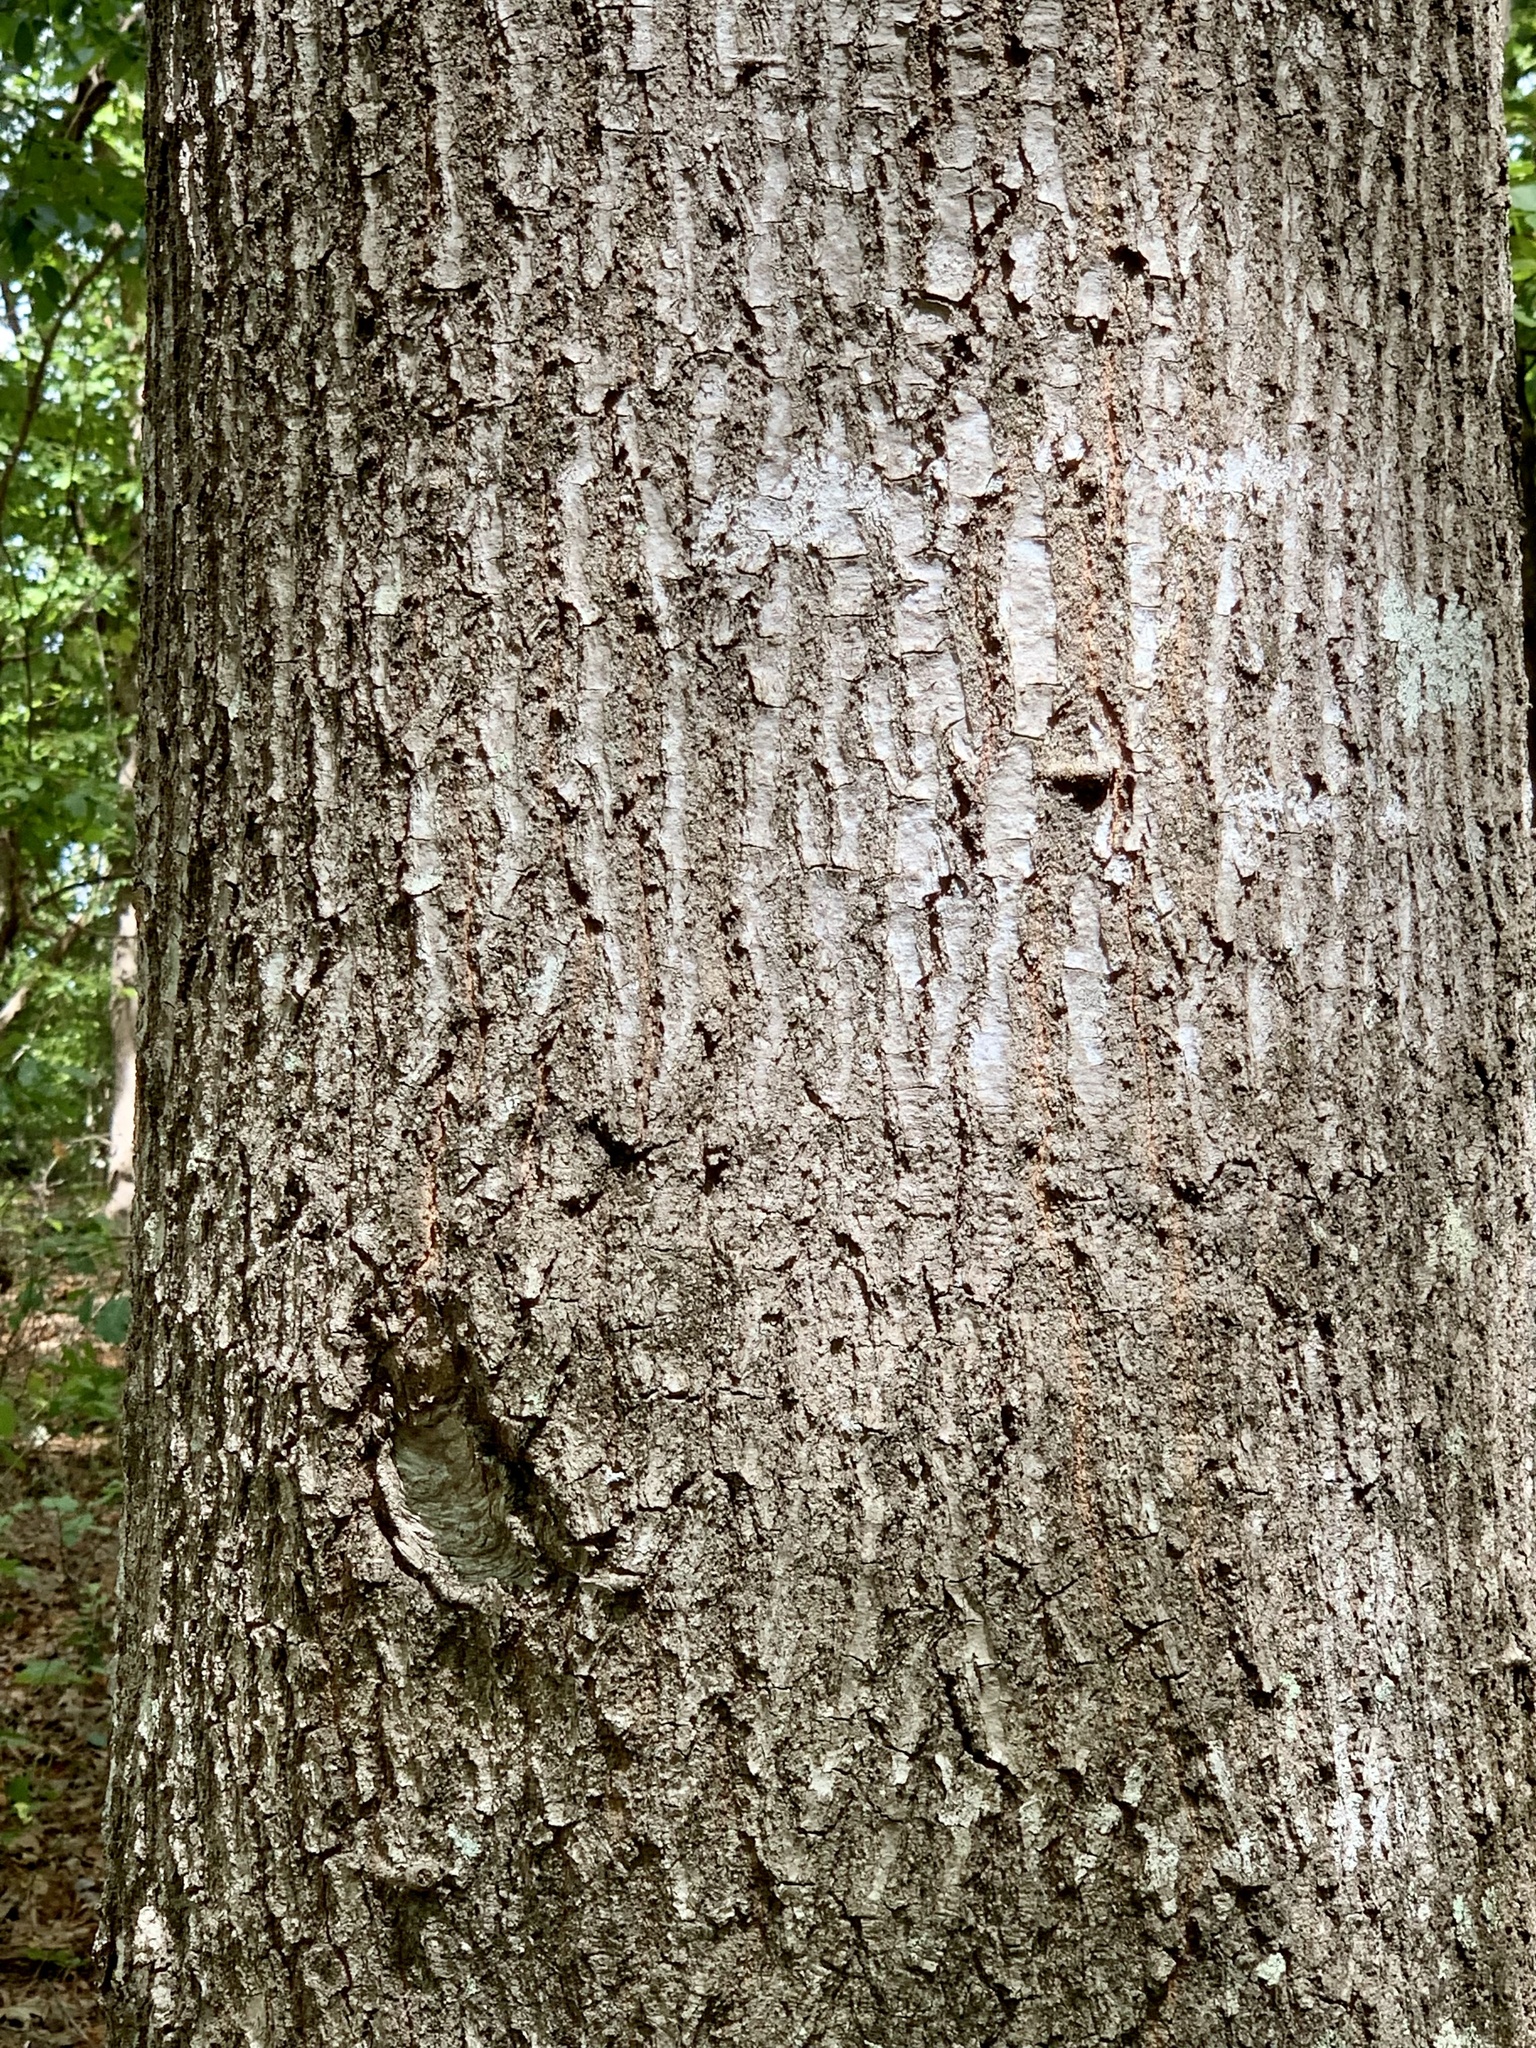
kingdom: Plantae
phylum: Tracheophyta
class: Magnoliopsida
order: Fagales
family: Fagaceae
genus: Quercus
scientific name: Quercus arkansana
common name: Arkansas oak
